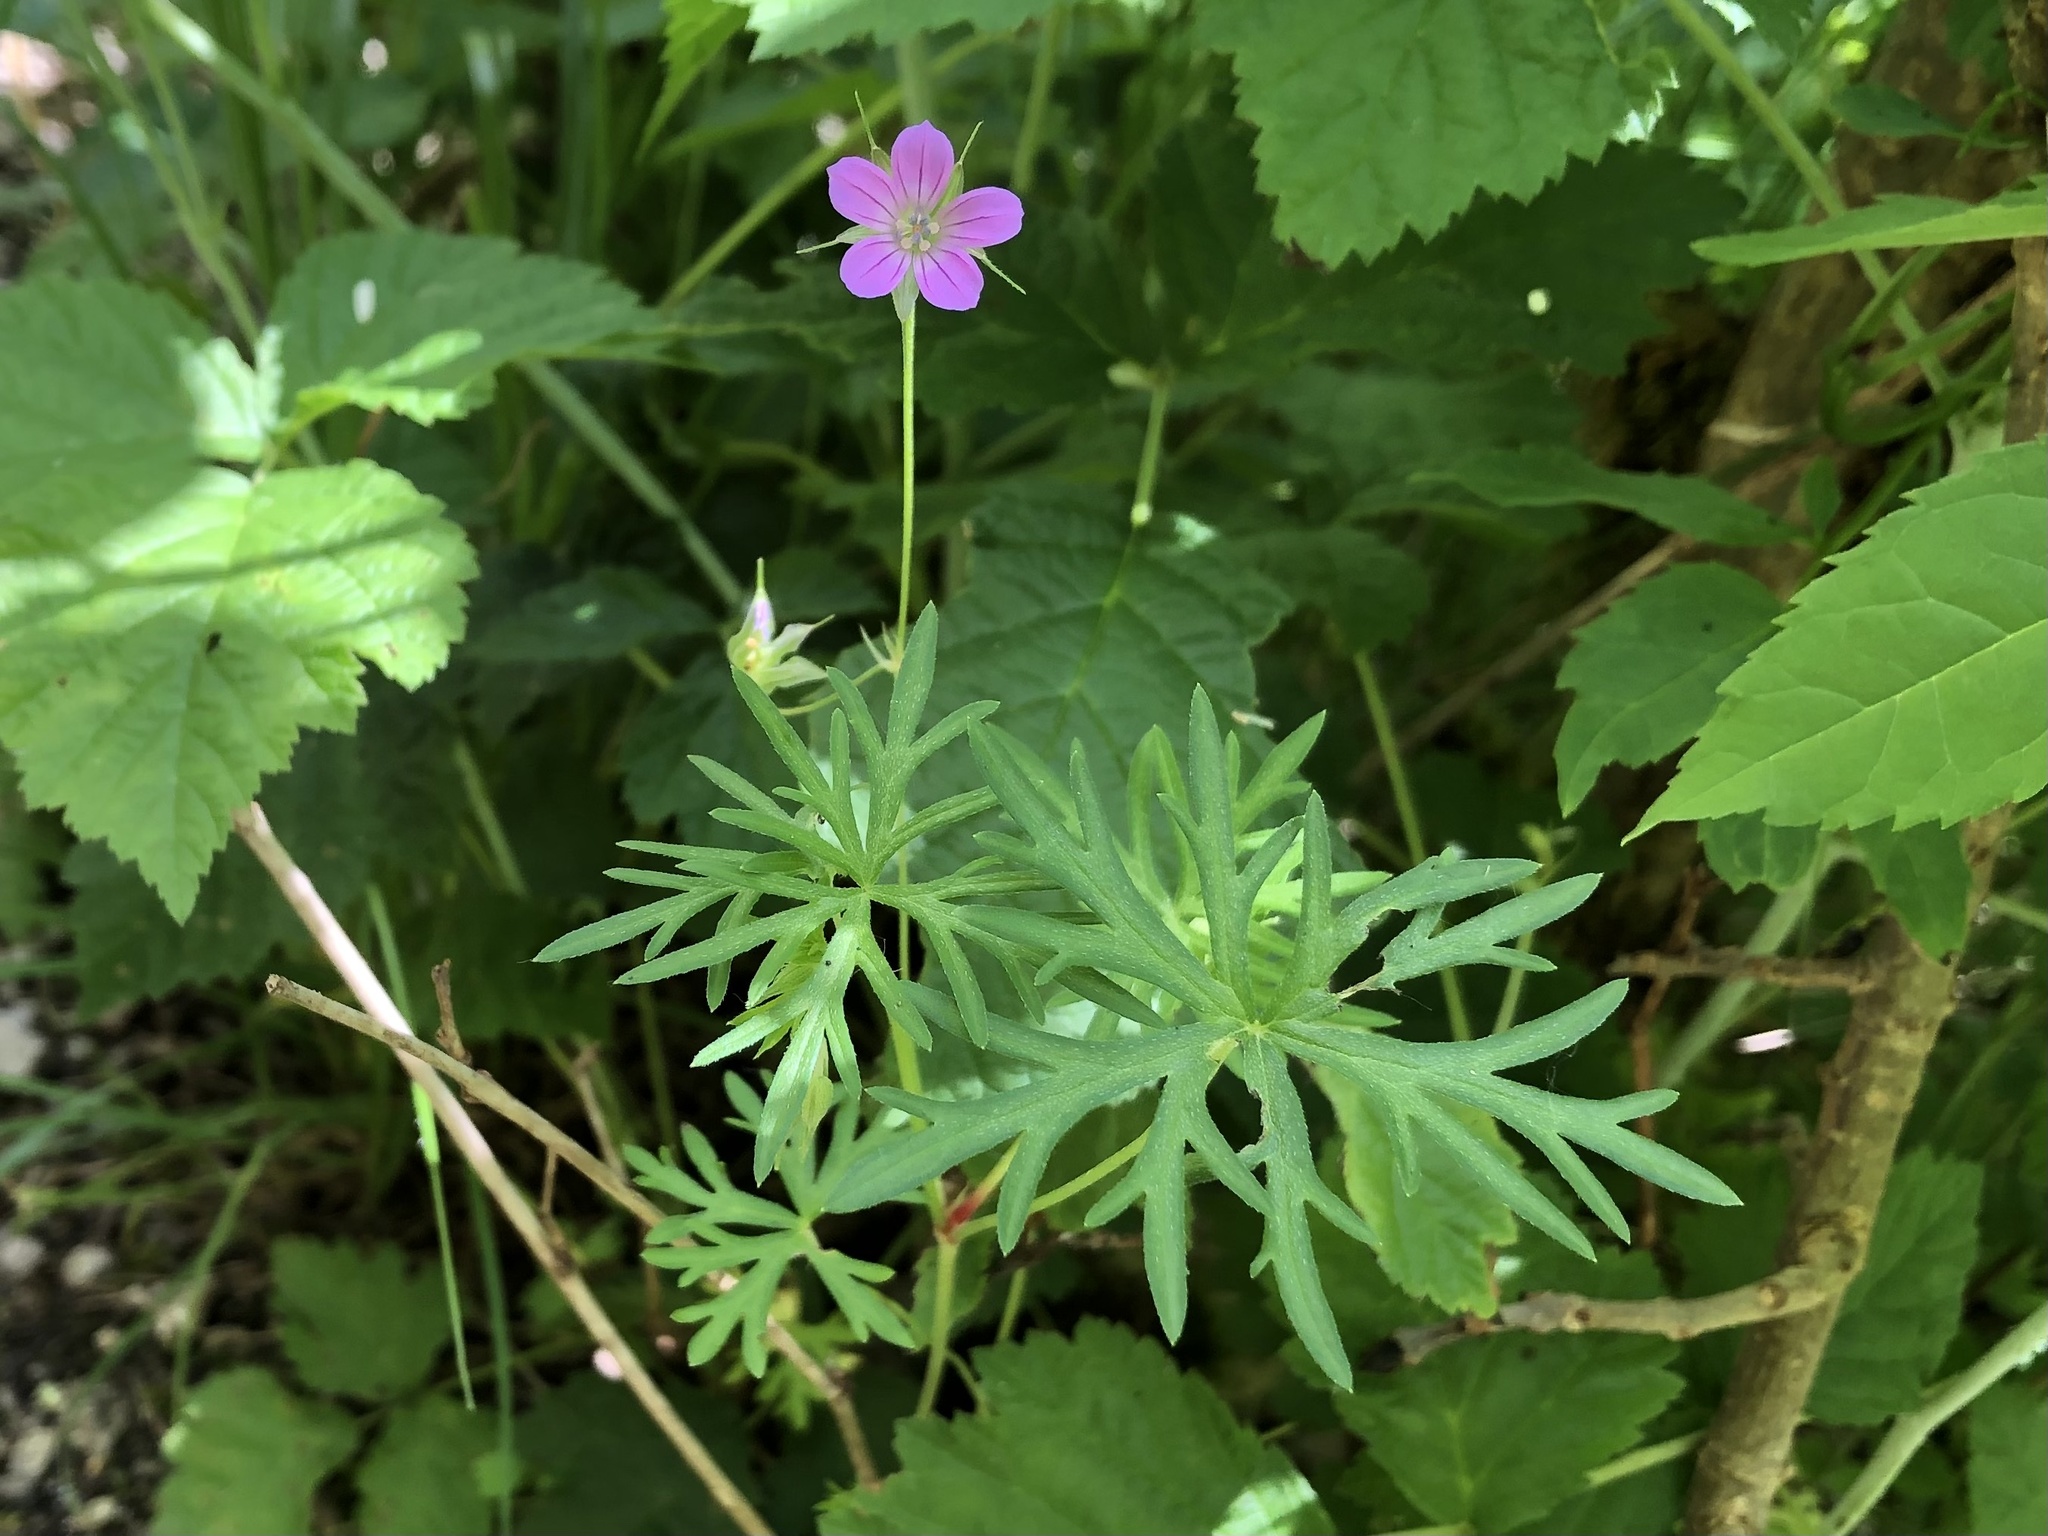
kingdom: Plantae
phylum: Tracheophyta
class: Magnoliopsida
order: Geraniales
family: Geraniaceae
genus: Geranium
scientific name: Geranium columbinum
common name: Long-stalked crane's-bill
